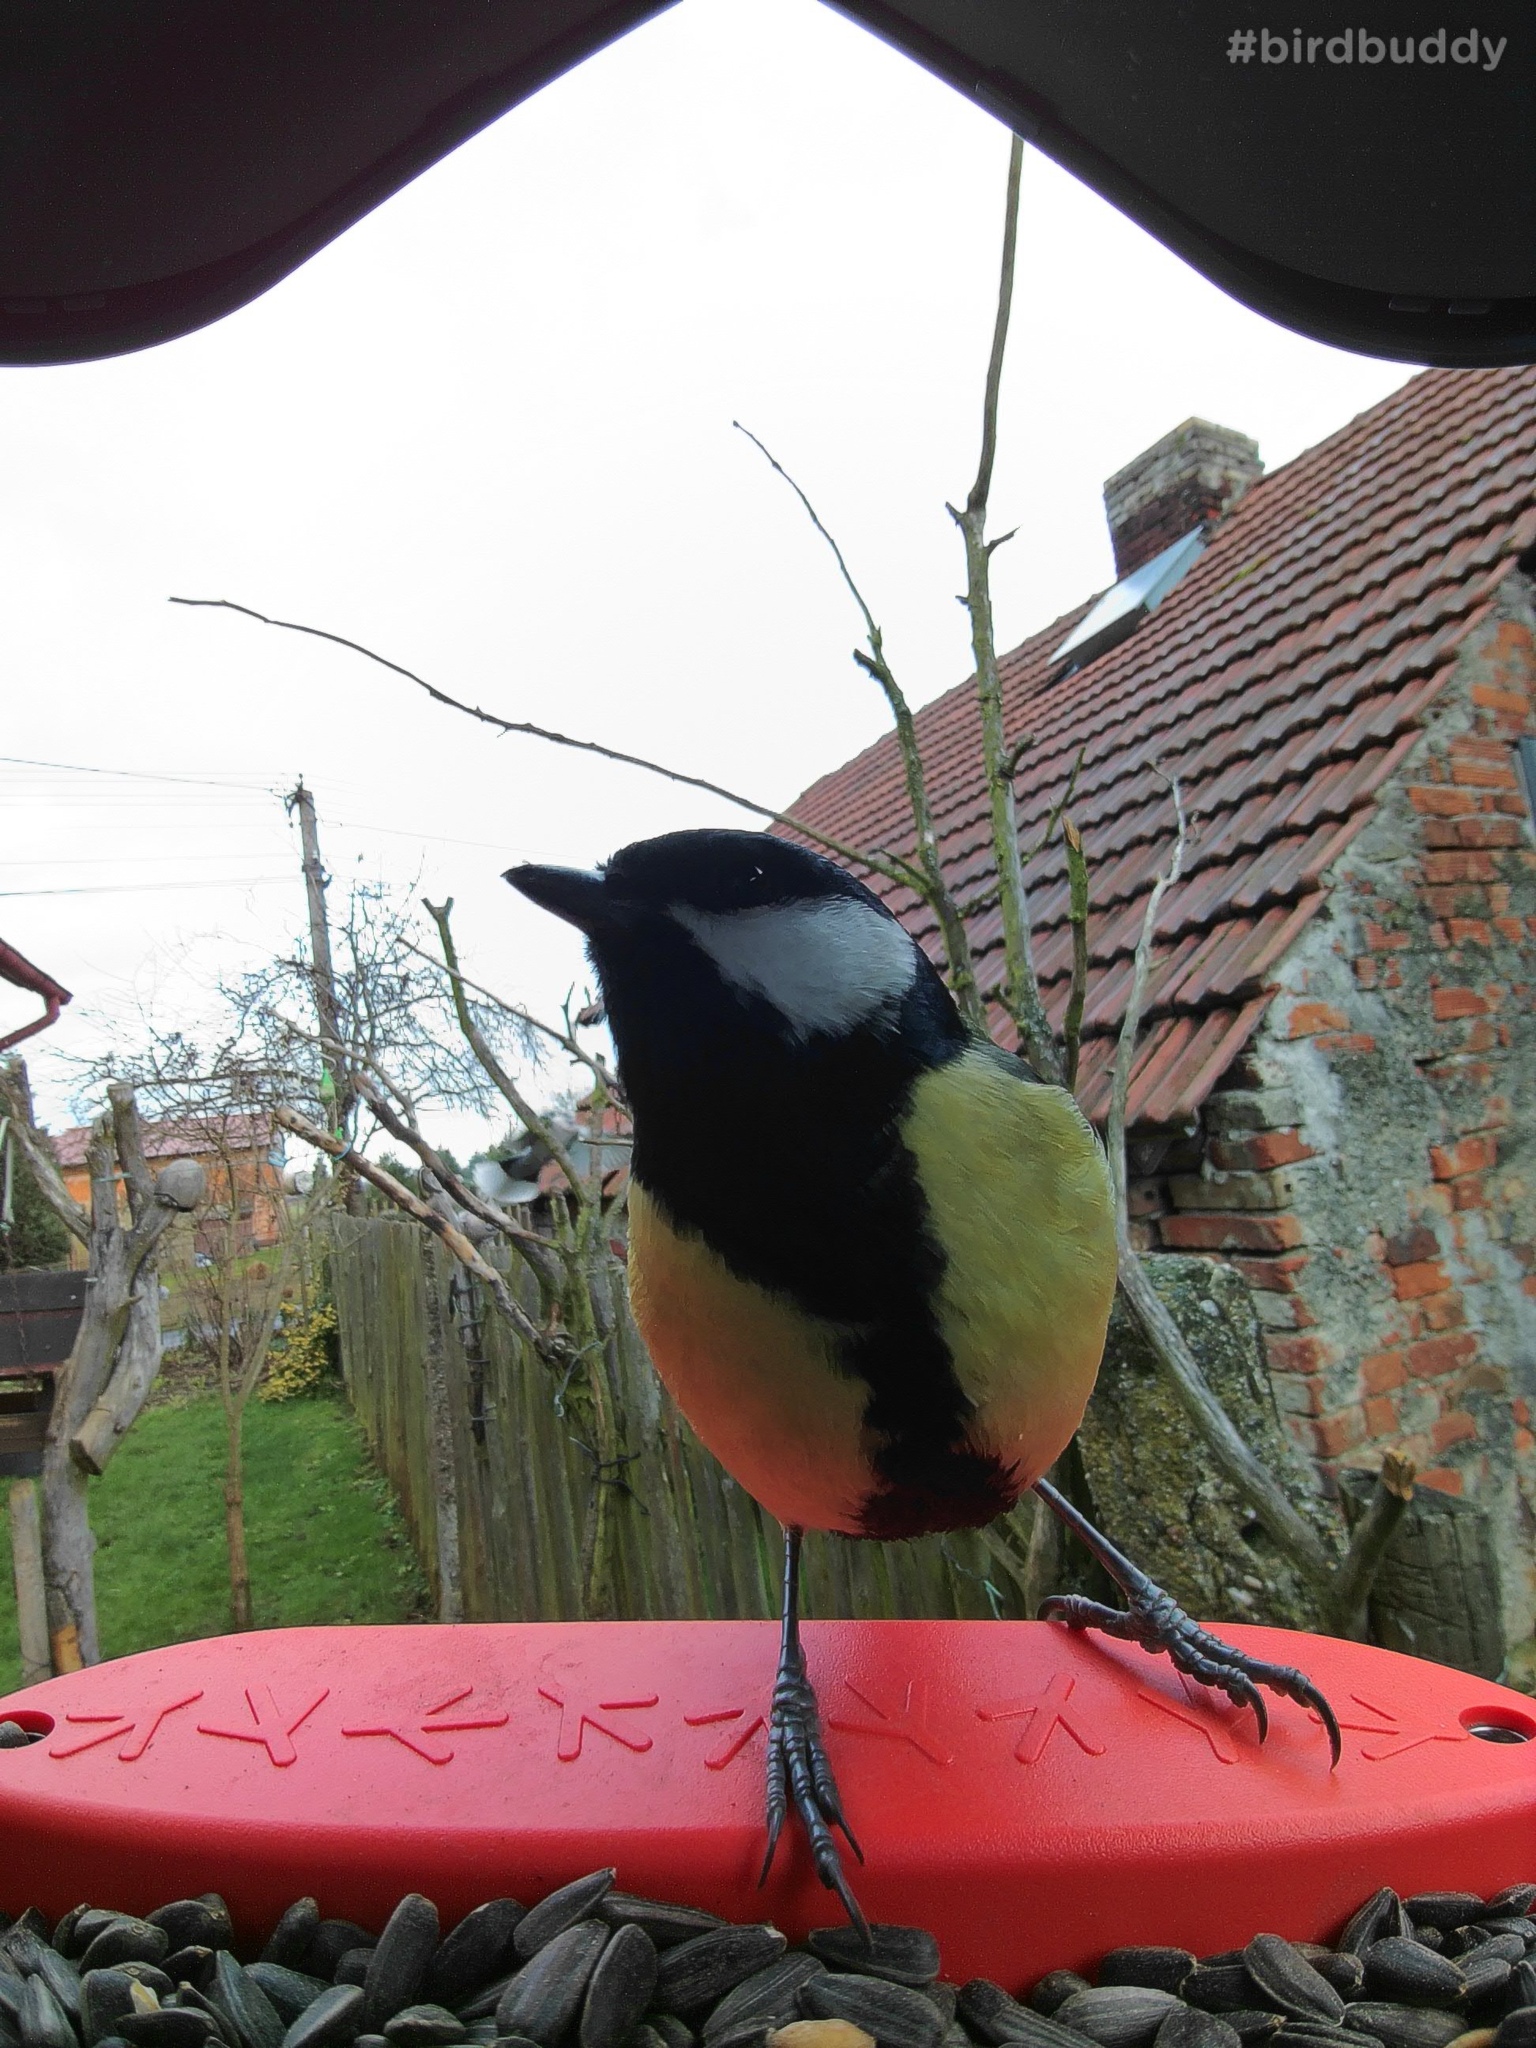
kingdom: Animalia
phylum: Chordata
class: Aves
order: Passeriformes
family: Paridae
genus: Parus
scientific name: Parus major
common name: Great tit
